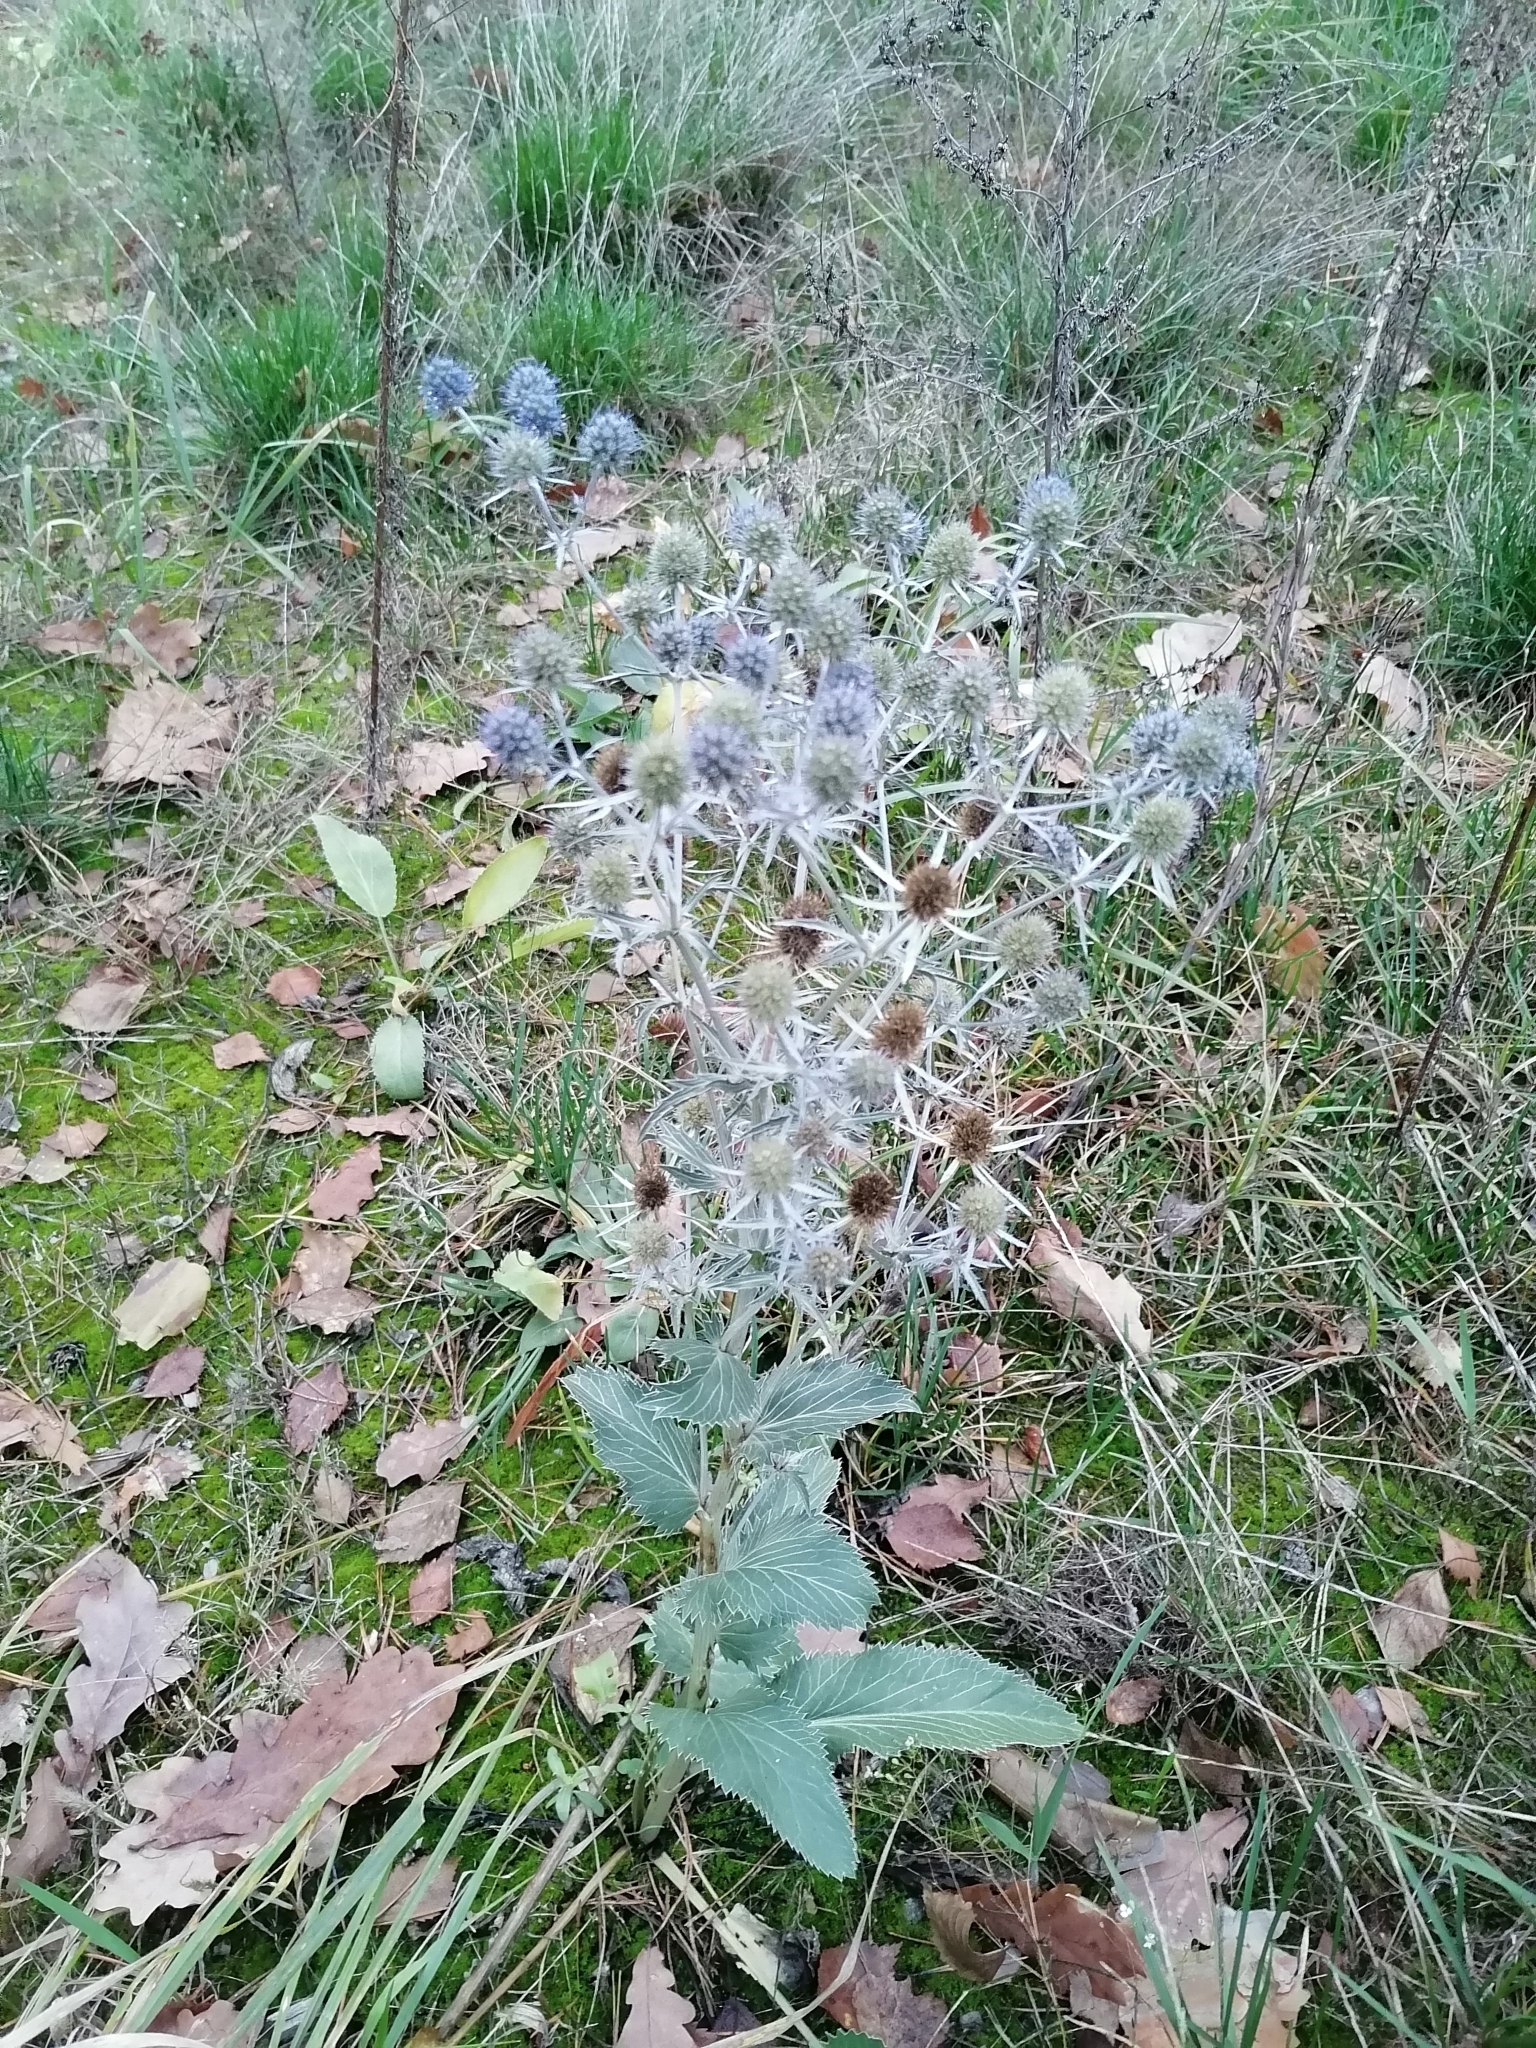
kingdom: Plantae
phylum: Tracheophyta
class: Magnoliopsida
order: Apiales
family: Apiaceae
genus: Eryngium
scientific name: Eryngium planum
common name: Blue eryngo
